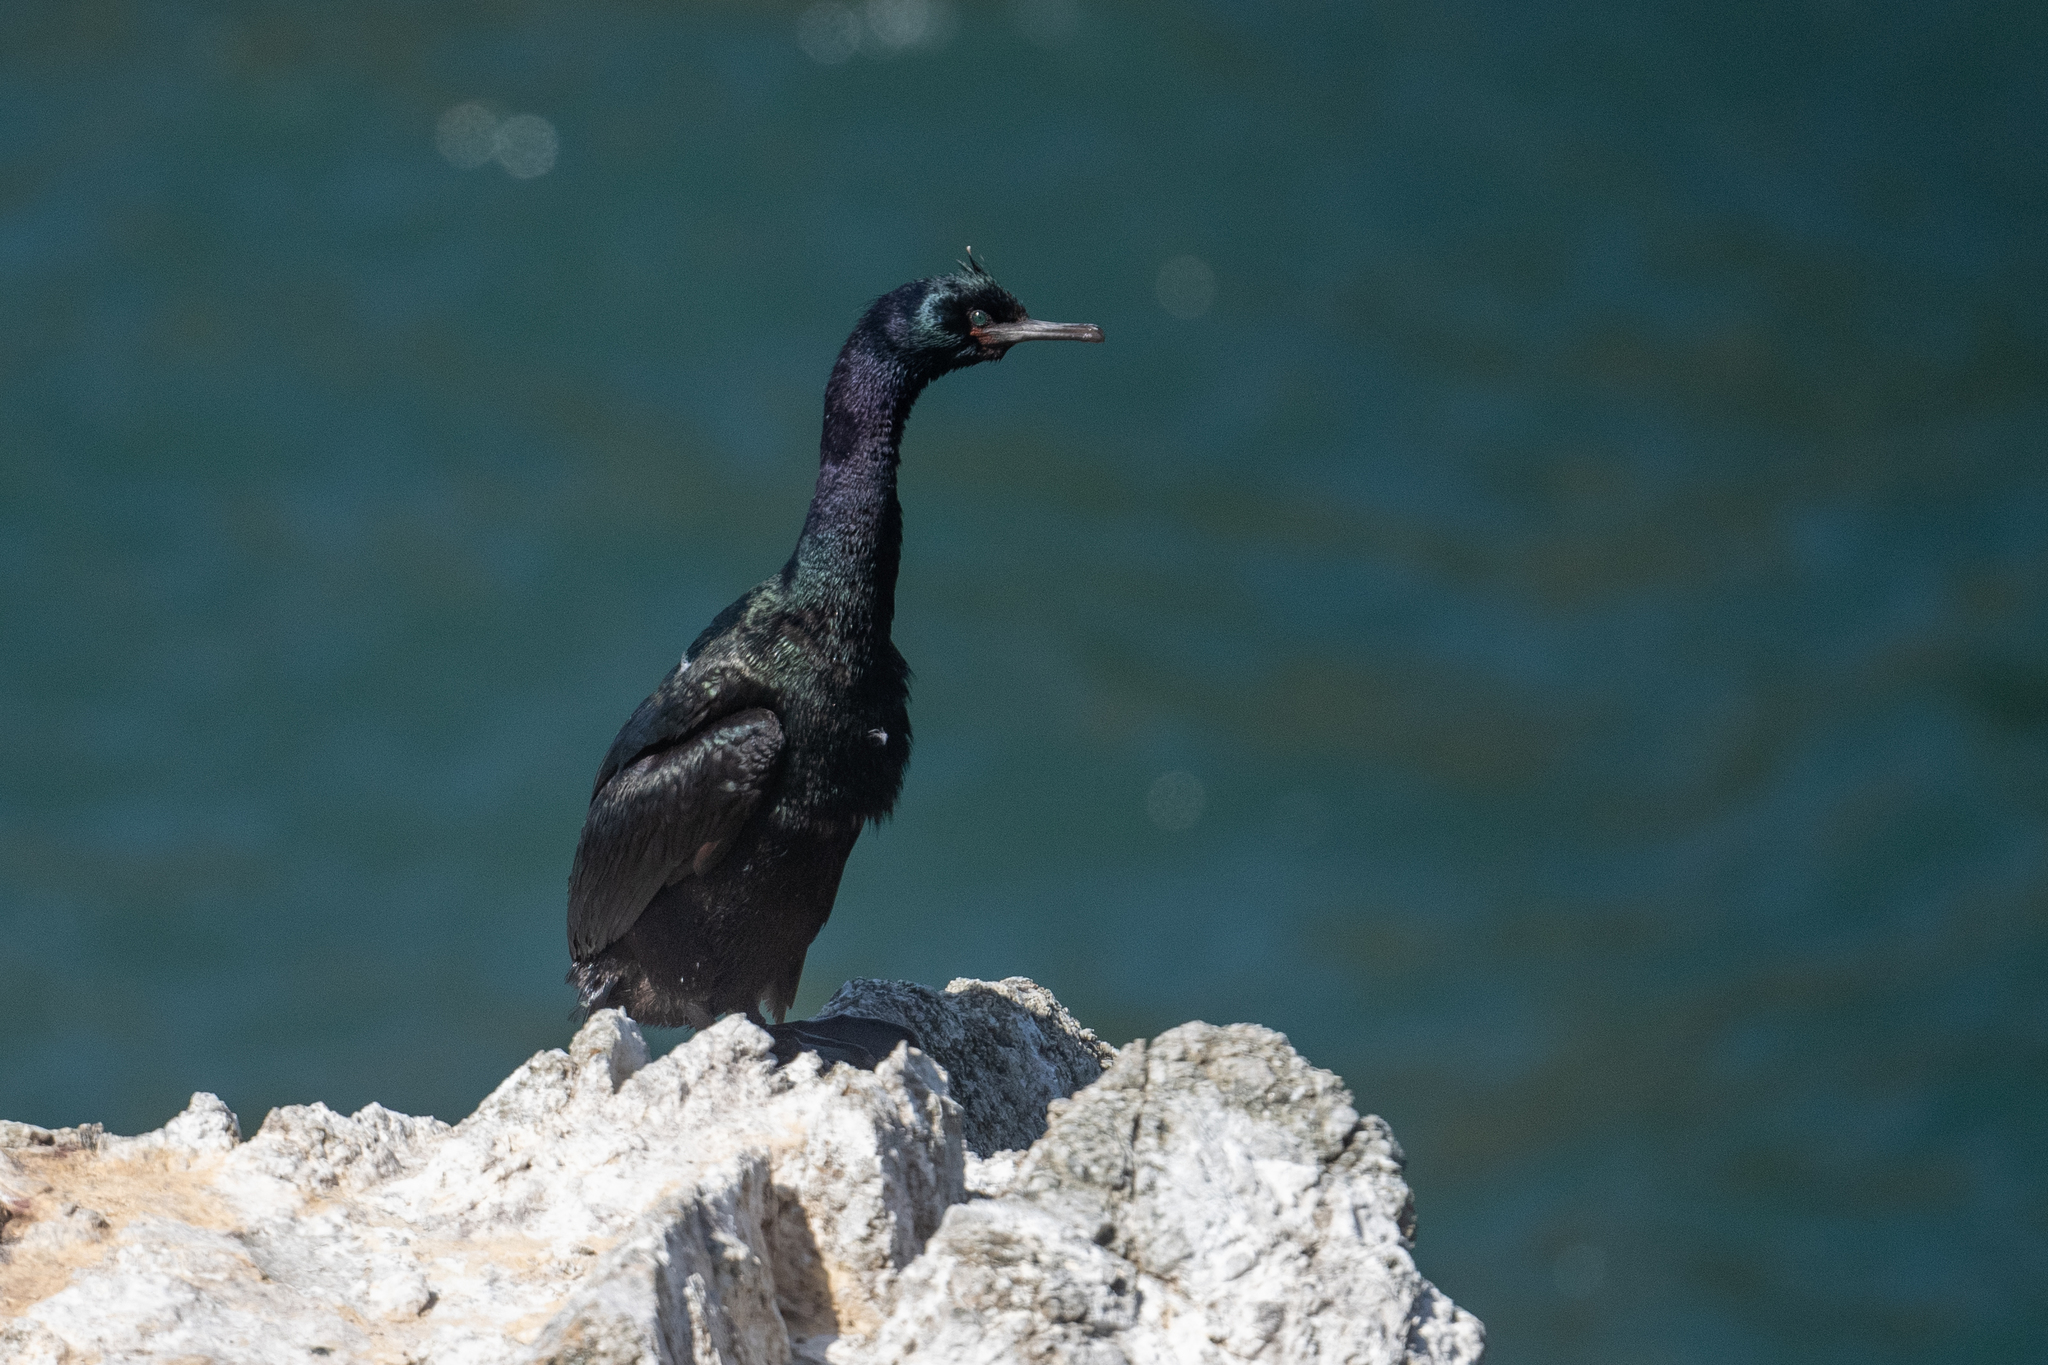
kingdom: Animalia
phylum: Chordata
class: Aves
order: Suliformes
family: Phalacrocoracidae
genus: Phalacrocorax
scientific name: Phalacrocorax pelagicus
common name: Pelagic cormorant
